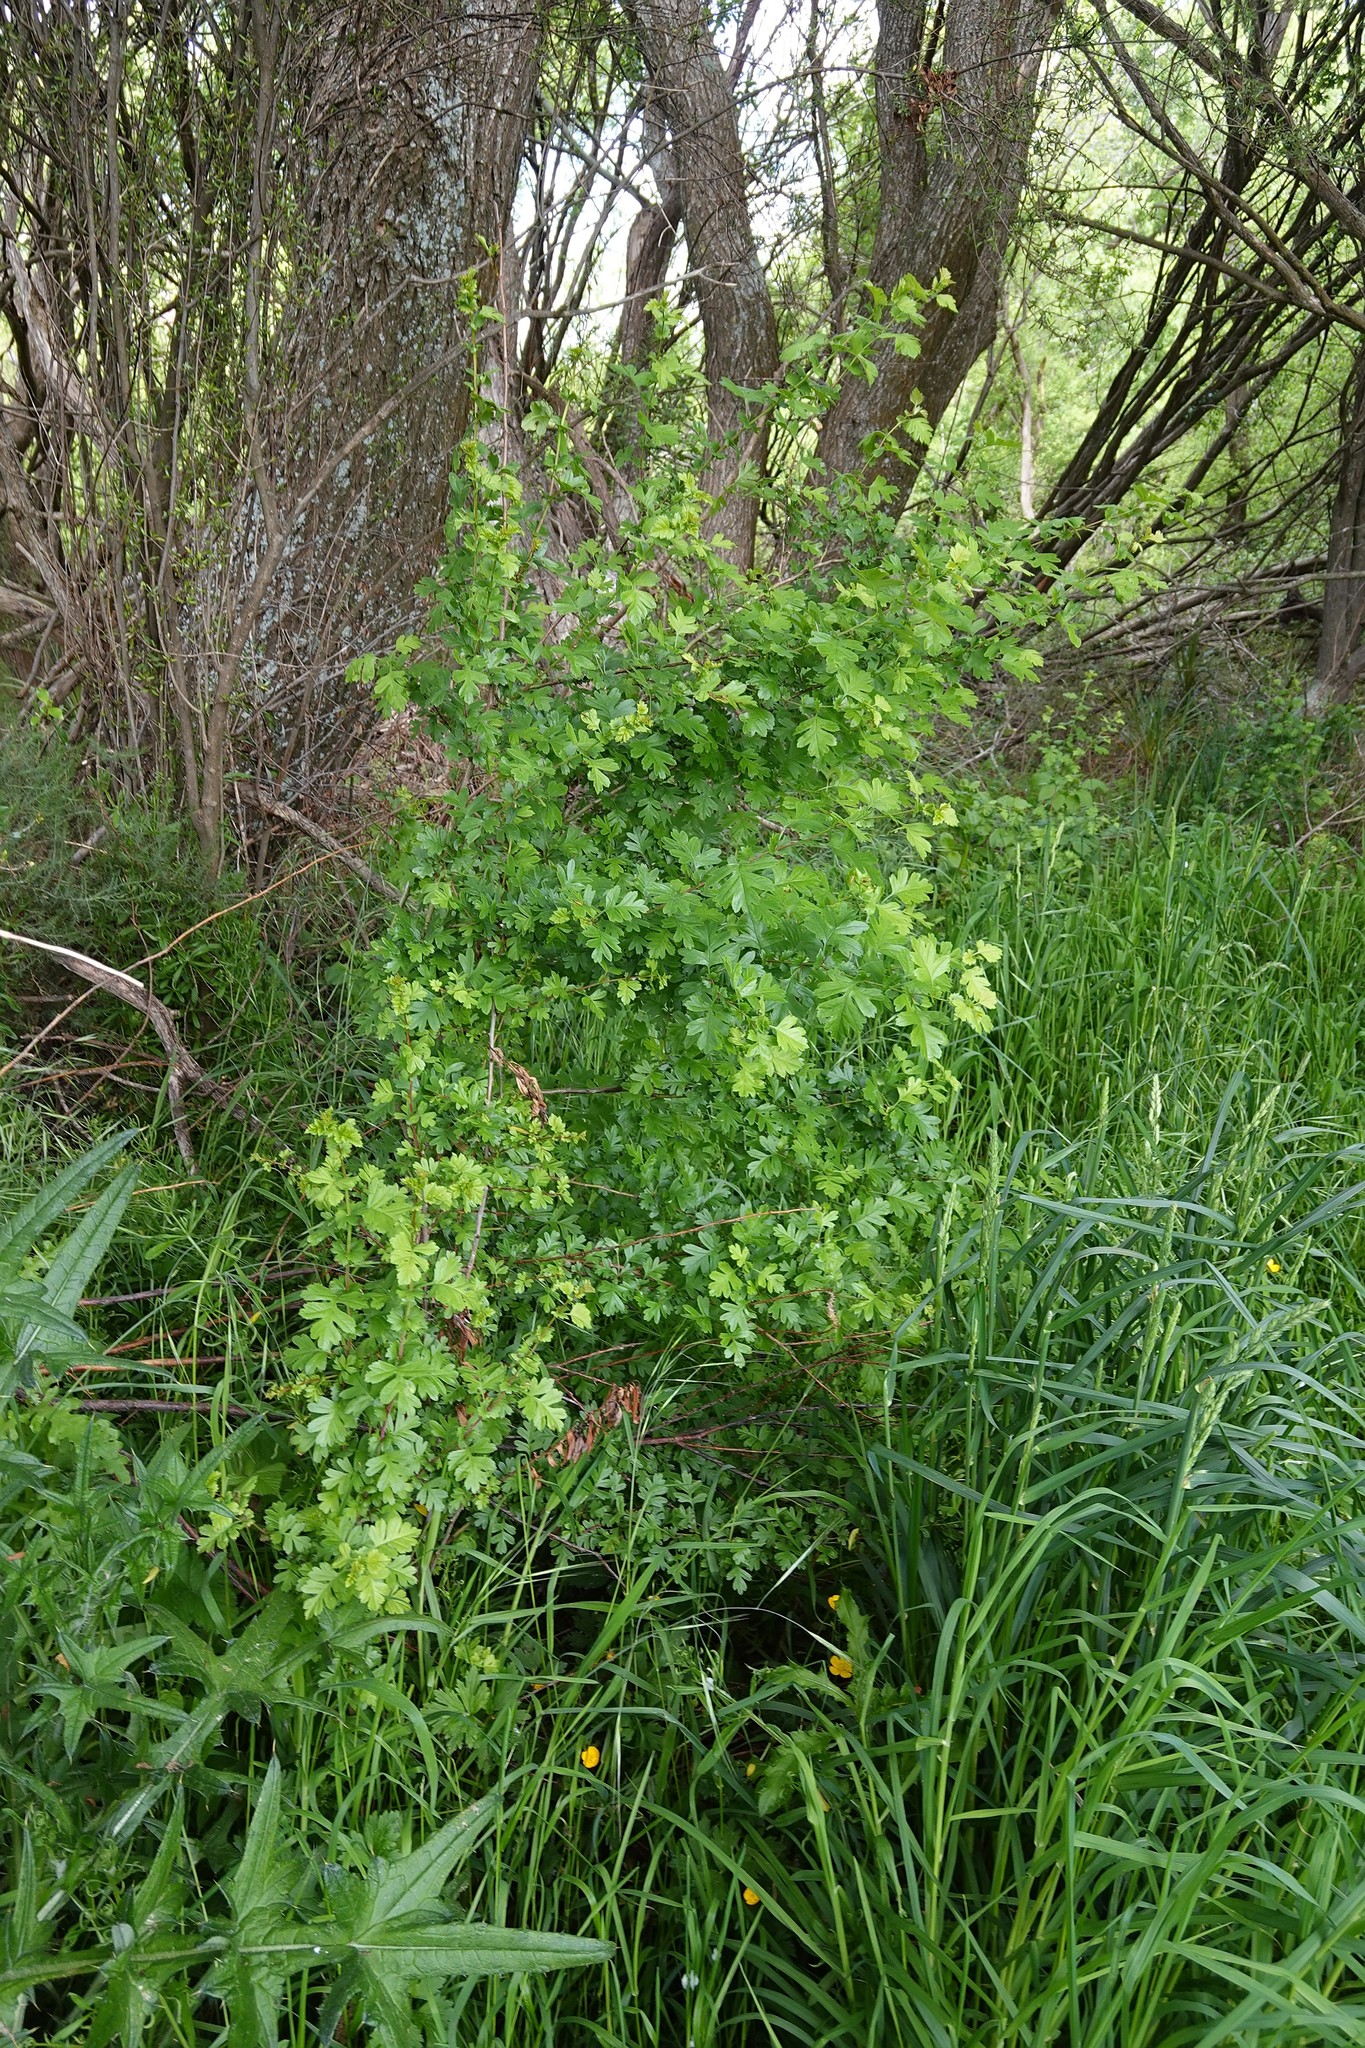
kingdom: Plantae
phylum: Tracheophyta
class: Magnoliopsida
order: Rosales
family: Rosaceae
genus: Crataegus
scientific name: Crataegus monogyna
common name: Hawthorn
